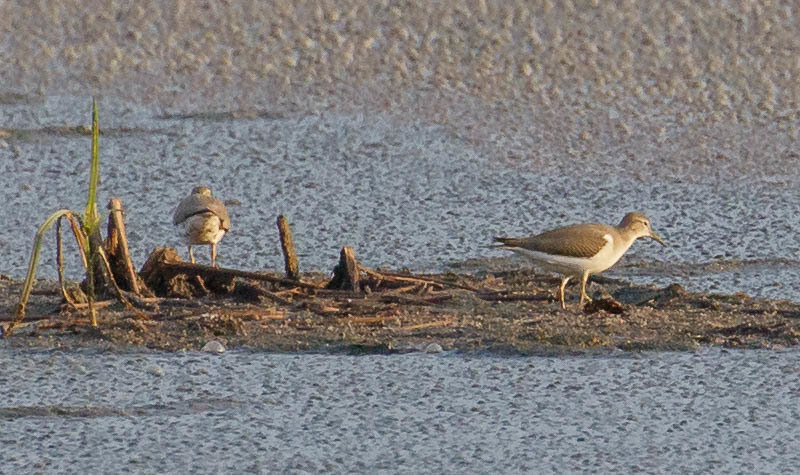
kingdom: Animalia
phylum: Chordata
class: Aves
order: Charadriiformes
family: Scolopacidae
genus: Actitis
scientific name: Actitis macularius
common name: Spotted sandpiper
